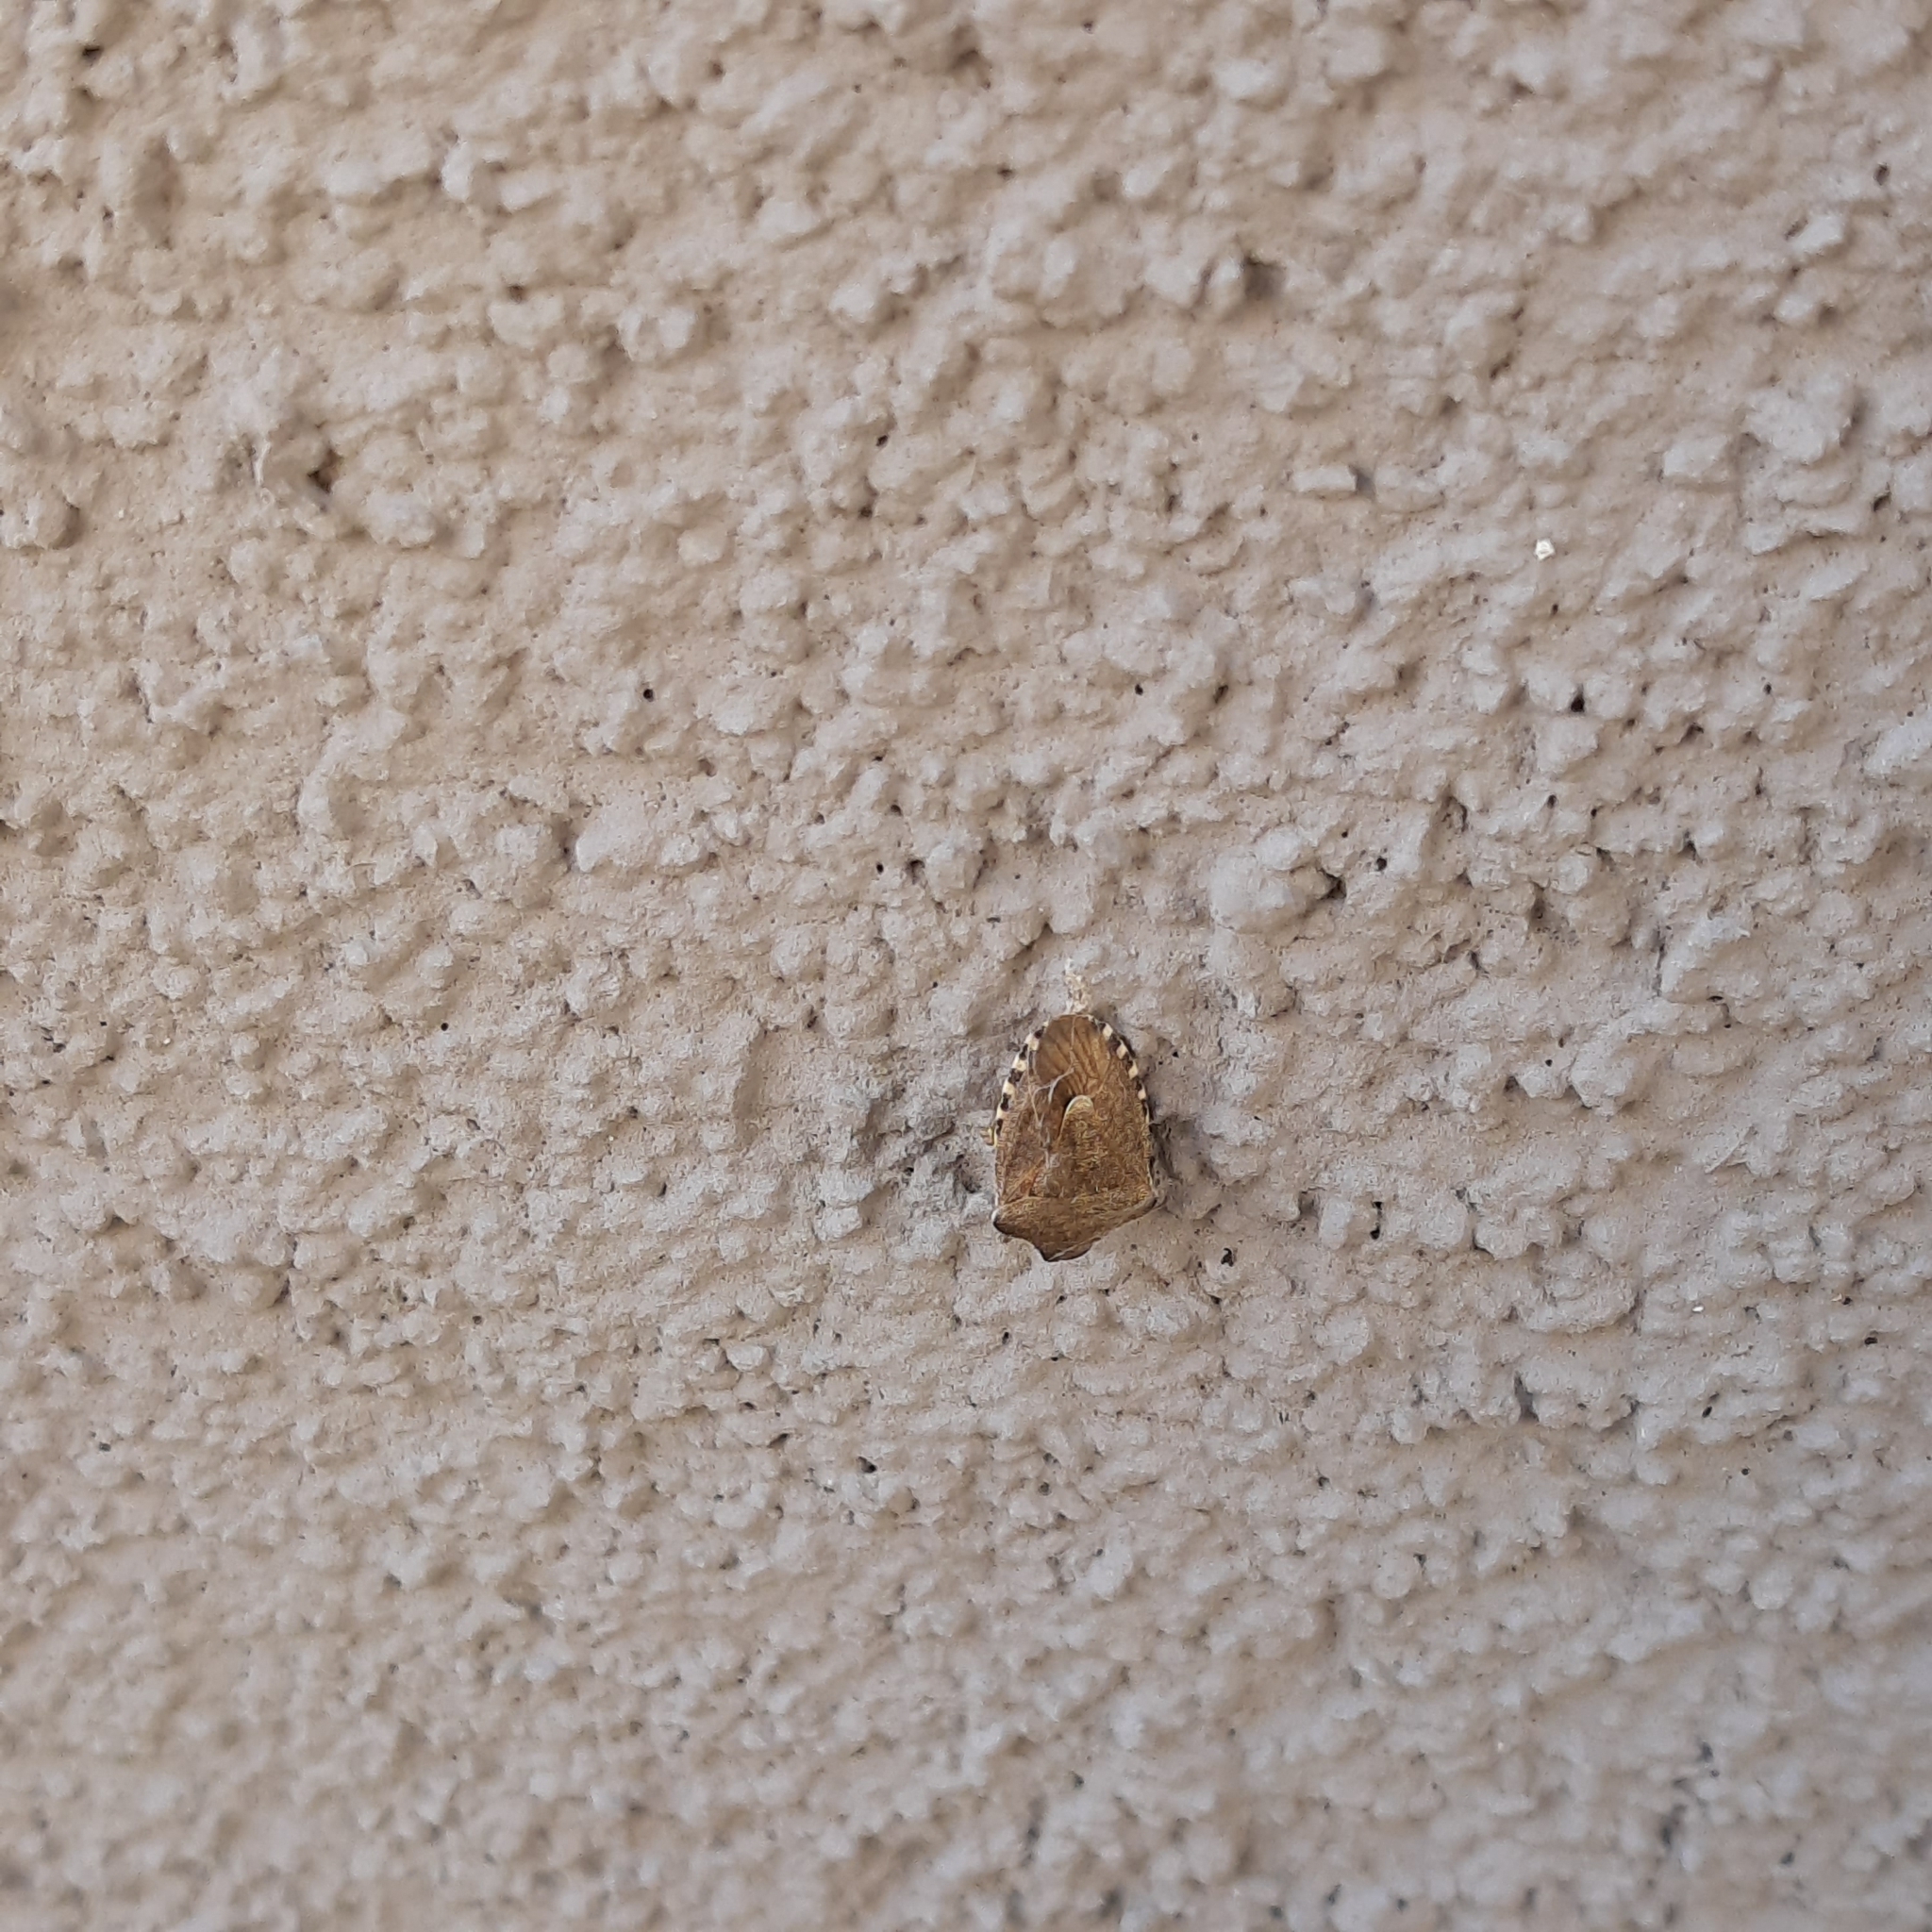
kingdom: Animalia
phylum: Arthropoda
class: Insecta
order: Hemiptera
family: Pentatomidae
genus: Holcostethus
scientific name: Holcostethus strictus
